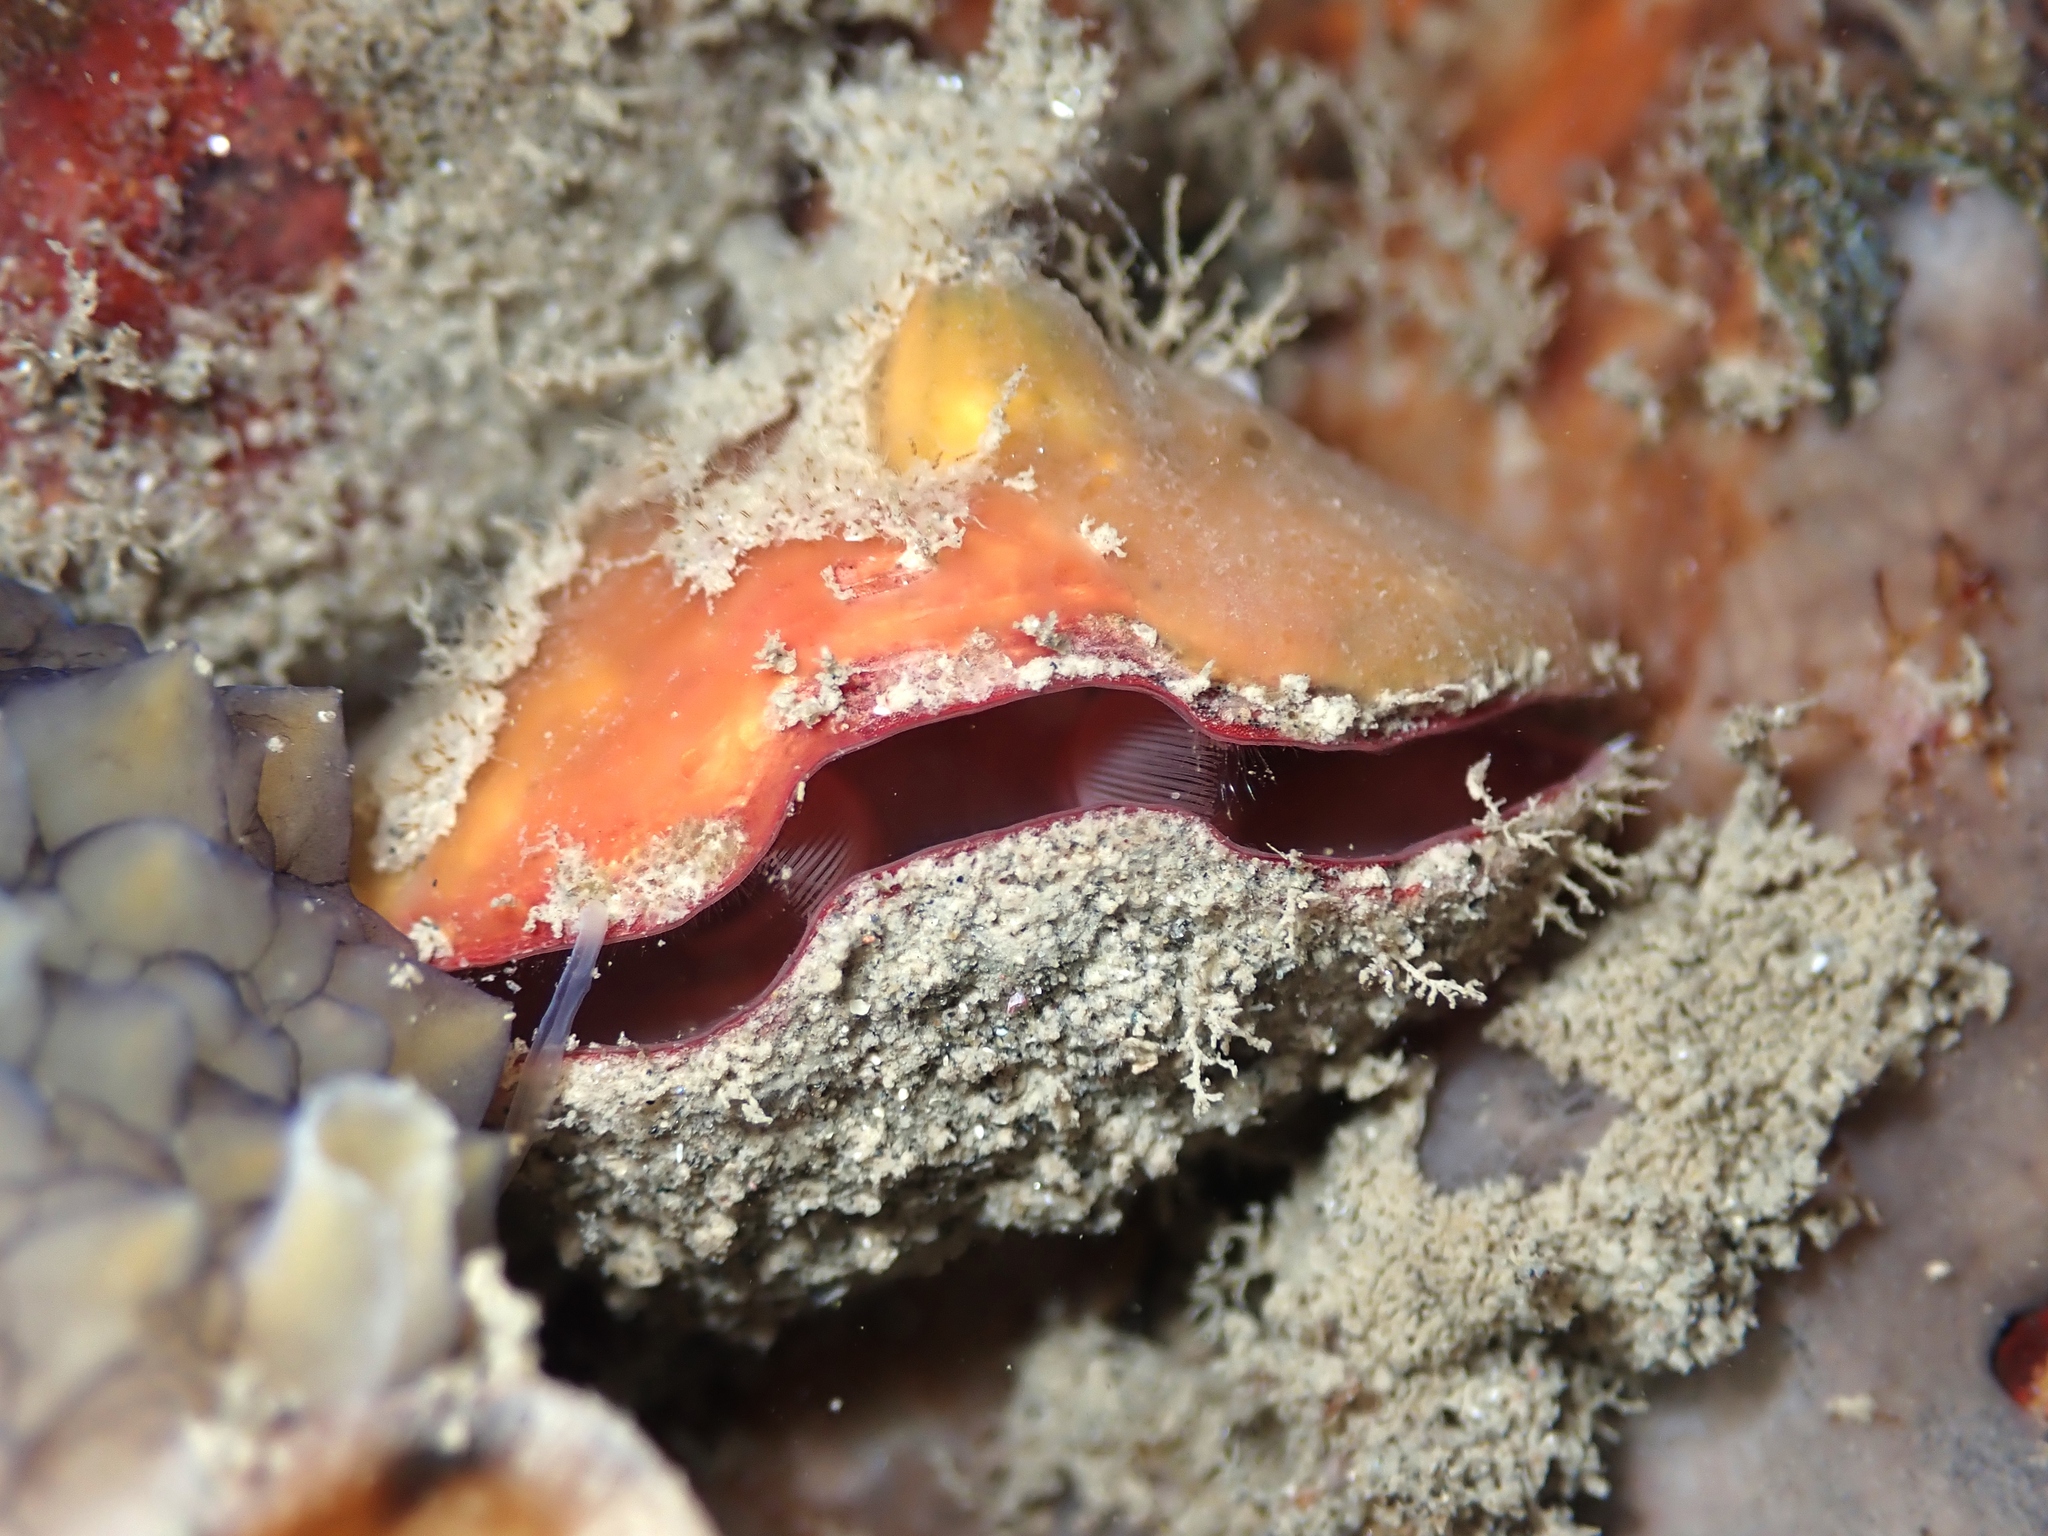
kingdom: Animalia
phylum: Brachiopoda
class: Rhynchonellata
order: Terebratulida
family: Terebratellidae
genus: Calloria
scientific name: Calloria inconspicua
